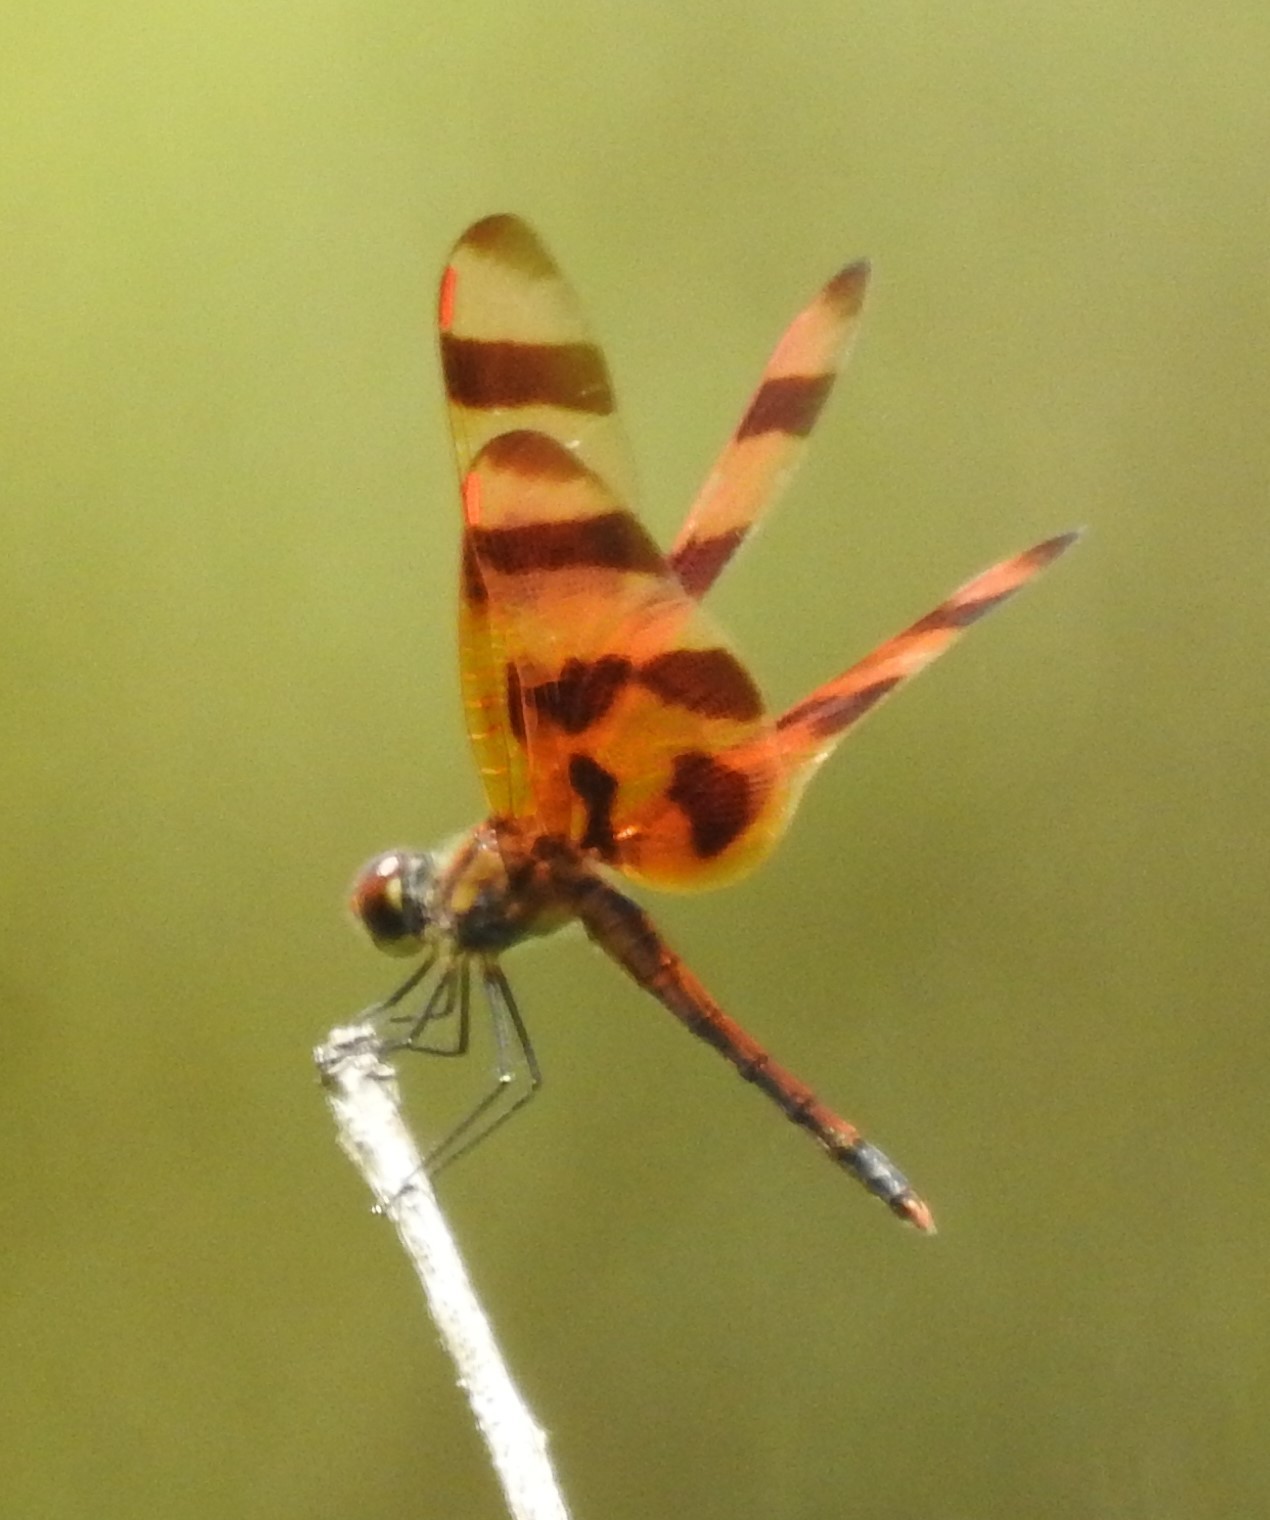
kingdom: Animalia
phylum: Arthropoda
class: Insecta
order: Odonata
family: Libellulidae
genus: Celithemis
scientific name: Celithemis eponina
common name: Halloween pennant
